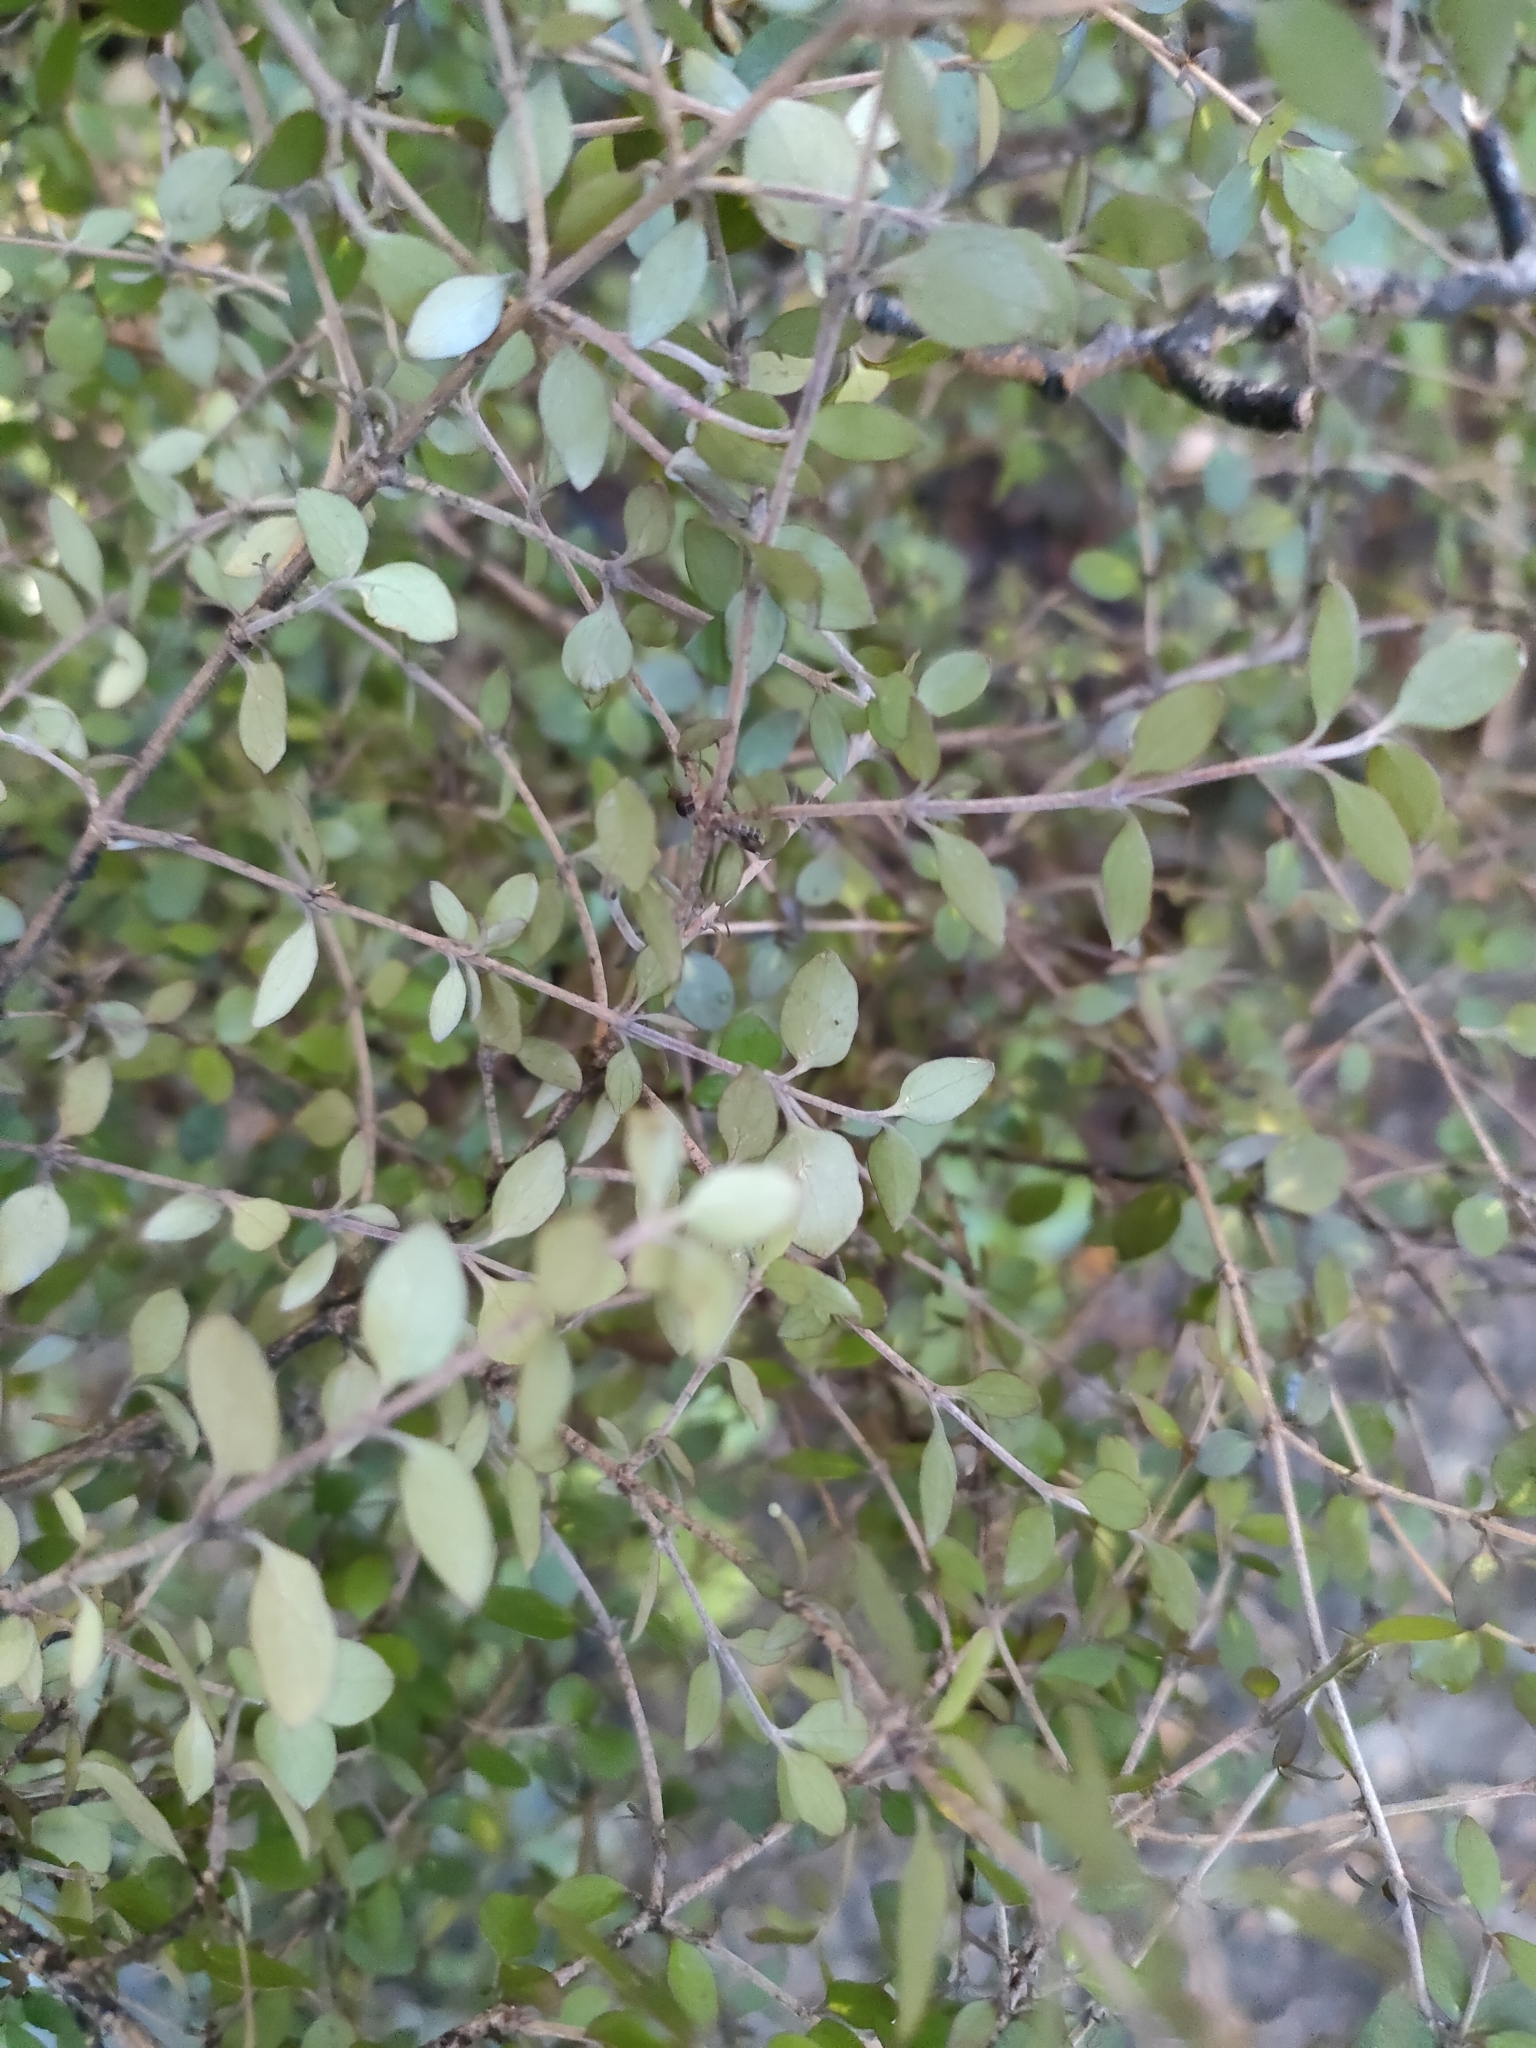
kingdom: Plantae
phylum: Tracheophyta
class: Magnoliopsida
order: Gentianales
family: Rubiaceae
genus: Coprosma
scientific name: Coprosma rhamnoides
